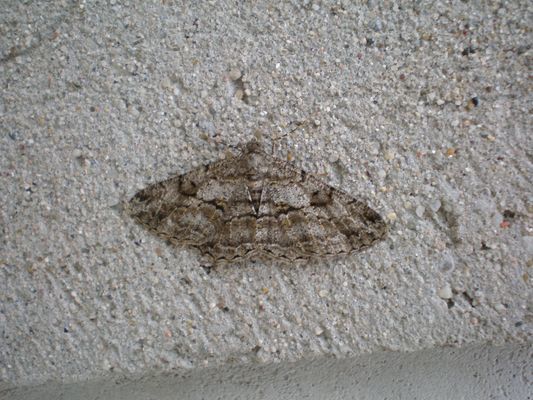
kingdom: Animalia
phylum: Arthropoda
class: Insecta
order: Lepidoptera
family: Geometridae
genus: Peribatodes
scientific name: Peribatodes rhomboidaria
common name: Willow beauty
